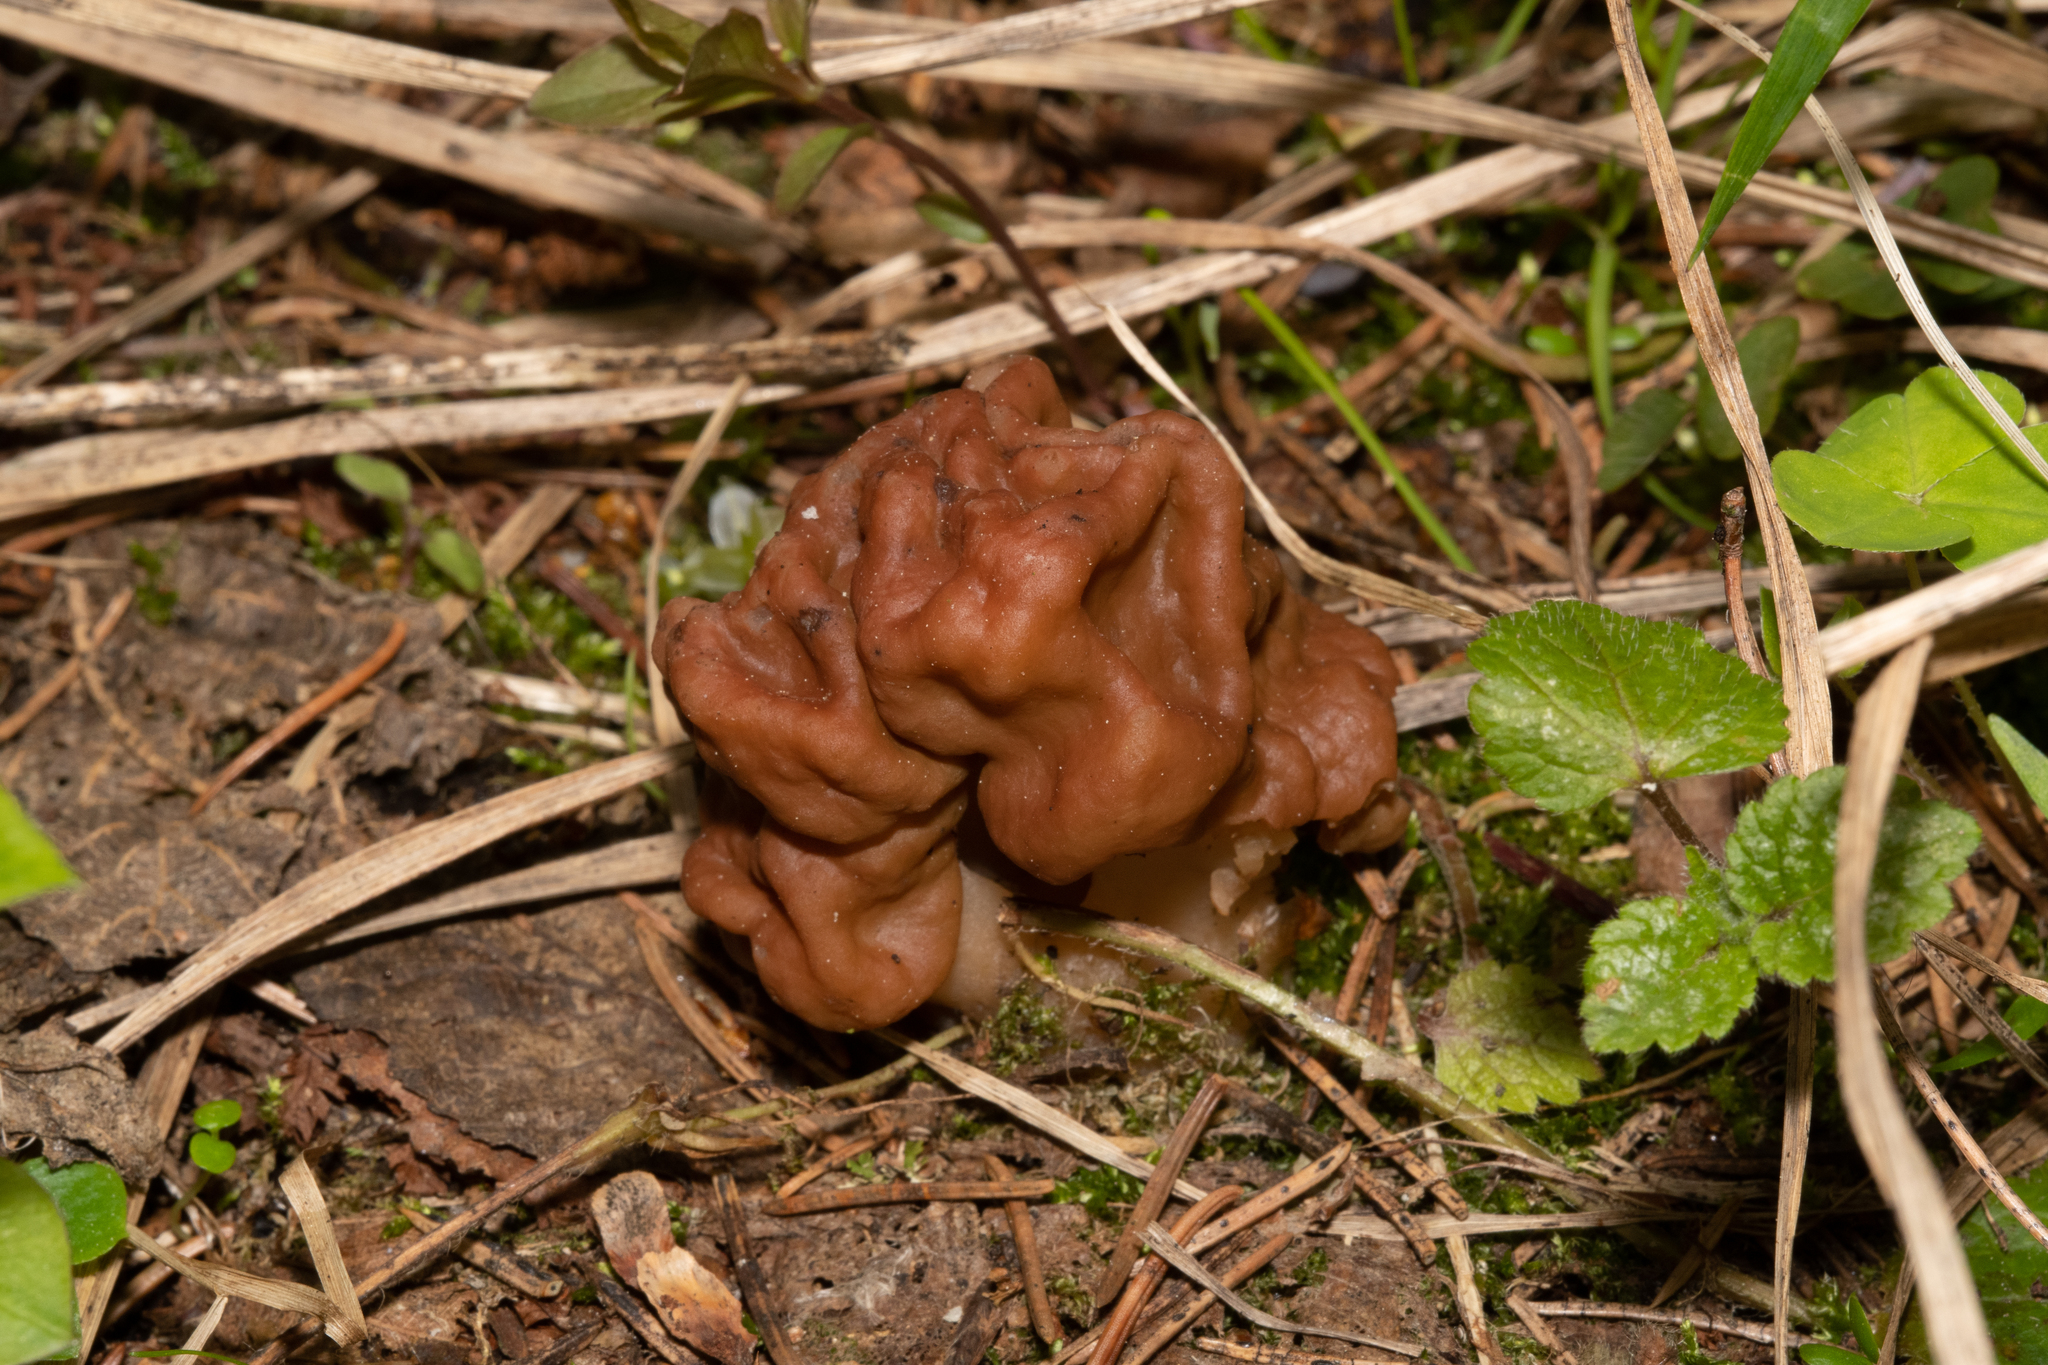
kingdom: Fungi
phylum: Ascomycota
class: Pezizomycetes
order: Pezizales
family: Discinaceae
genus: Gyromitra
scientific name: Gyromitra gigas
